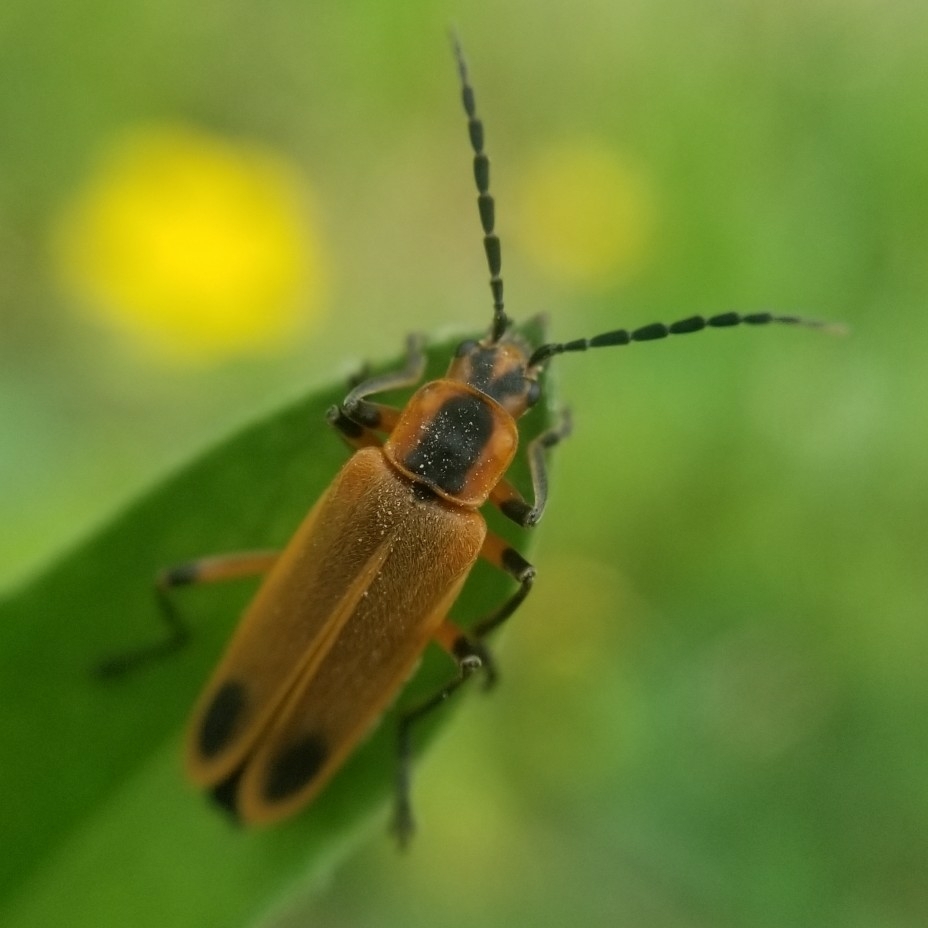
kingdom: Animalia
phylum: Arthropoda
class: Insecta
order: Coleoptera
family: Cantharidae
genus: Chauliognathus
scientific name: Chauliognathus marginatus
